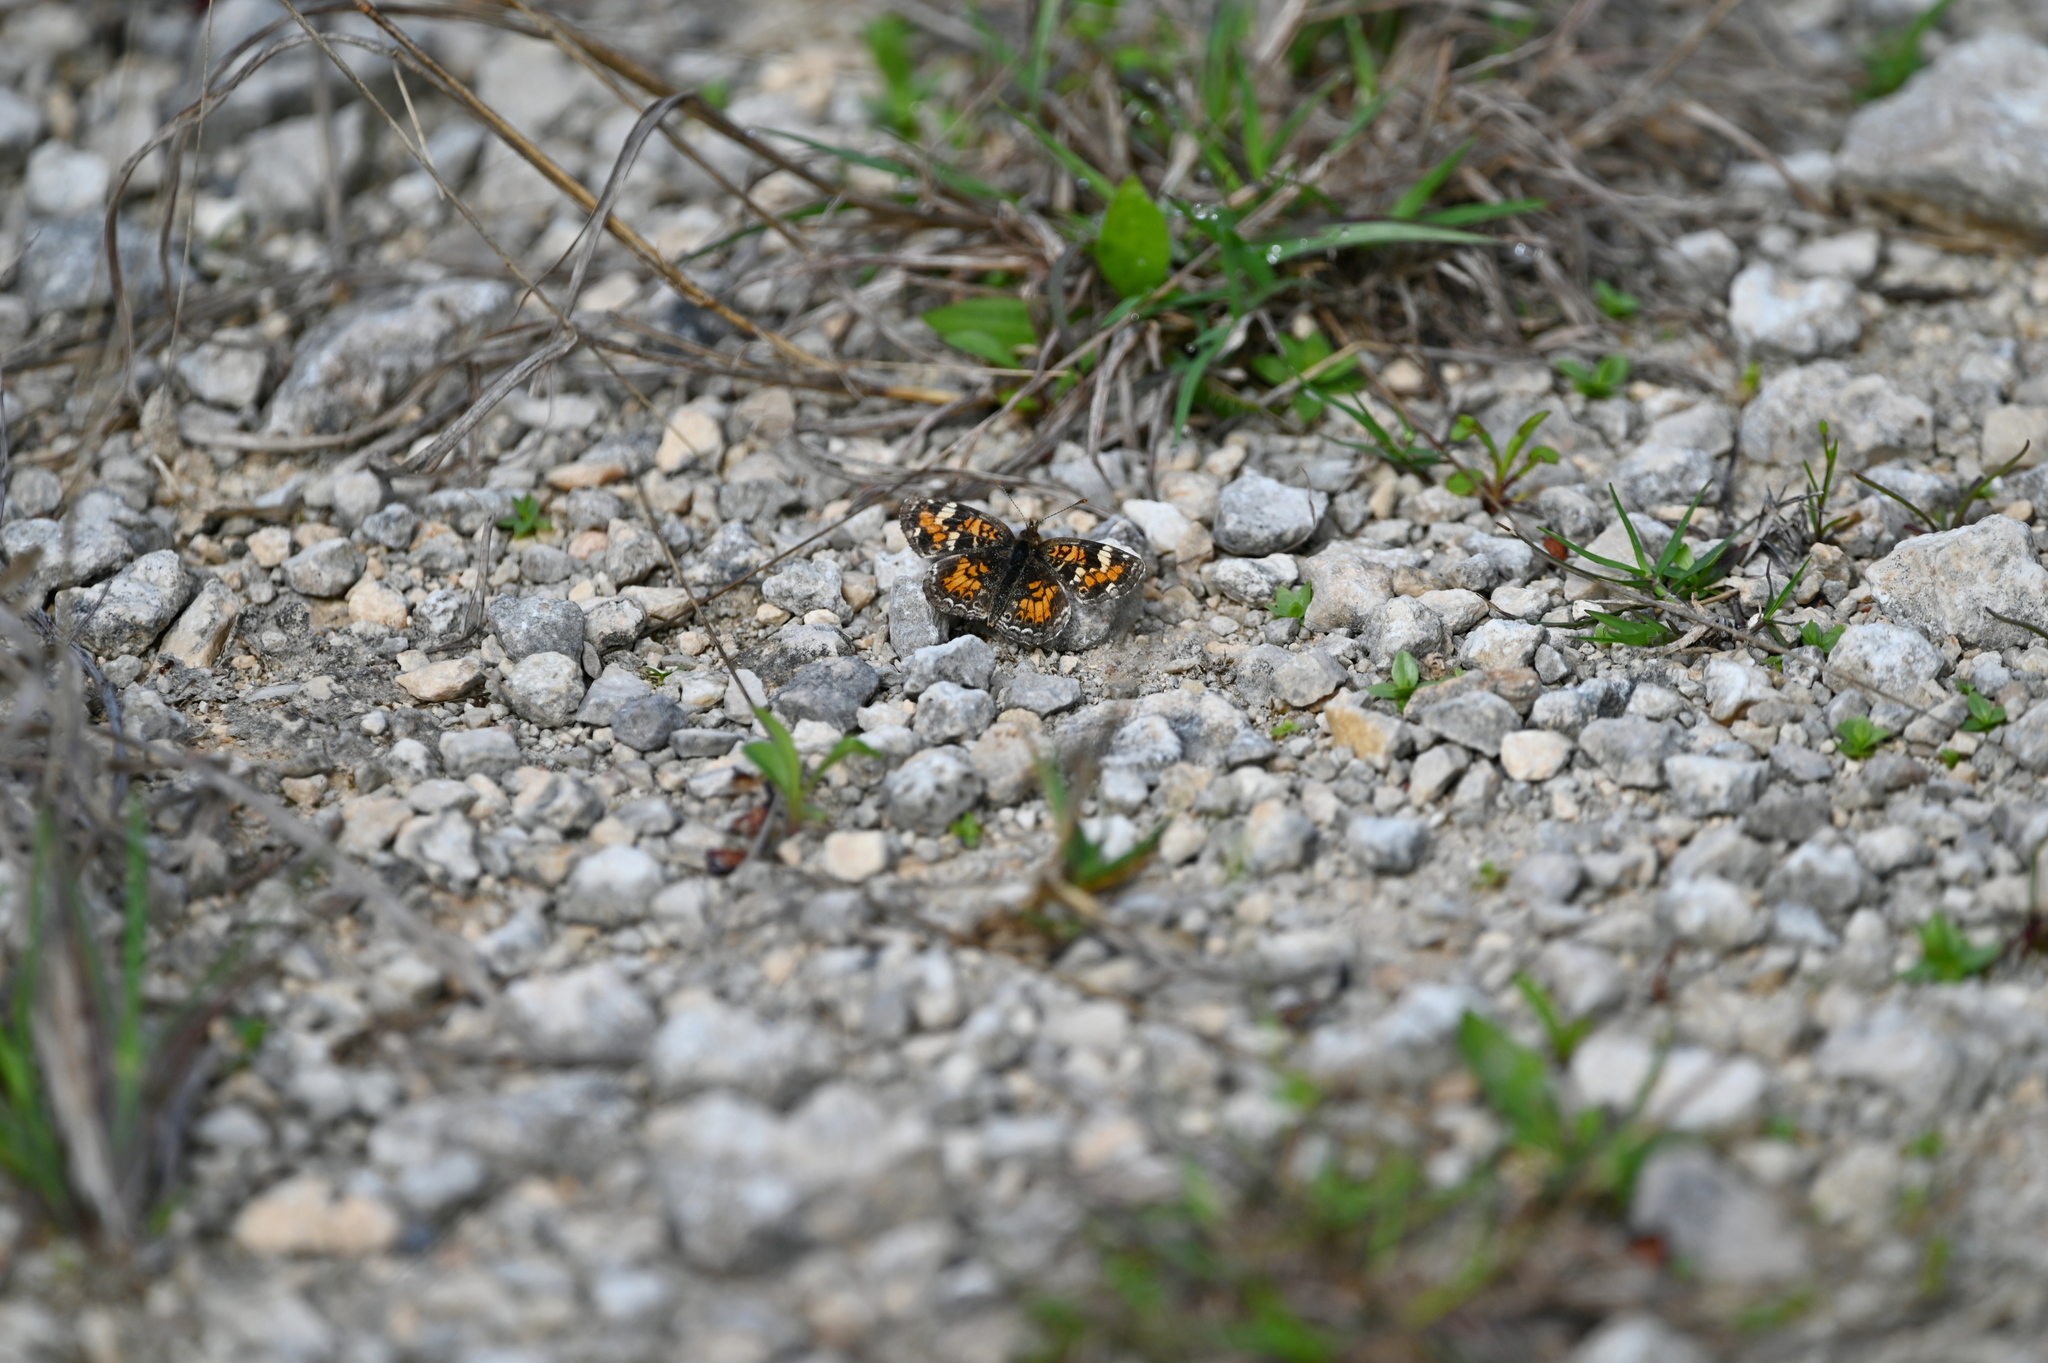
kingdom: Animalia
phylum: Arthropoda
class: Insecta
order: Lepidoptera
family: Nymphalidae
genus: Phyciodes
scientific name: Phyciodes phaon
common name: Phaon crescent
